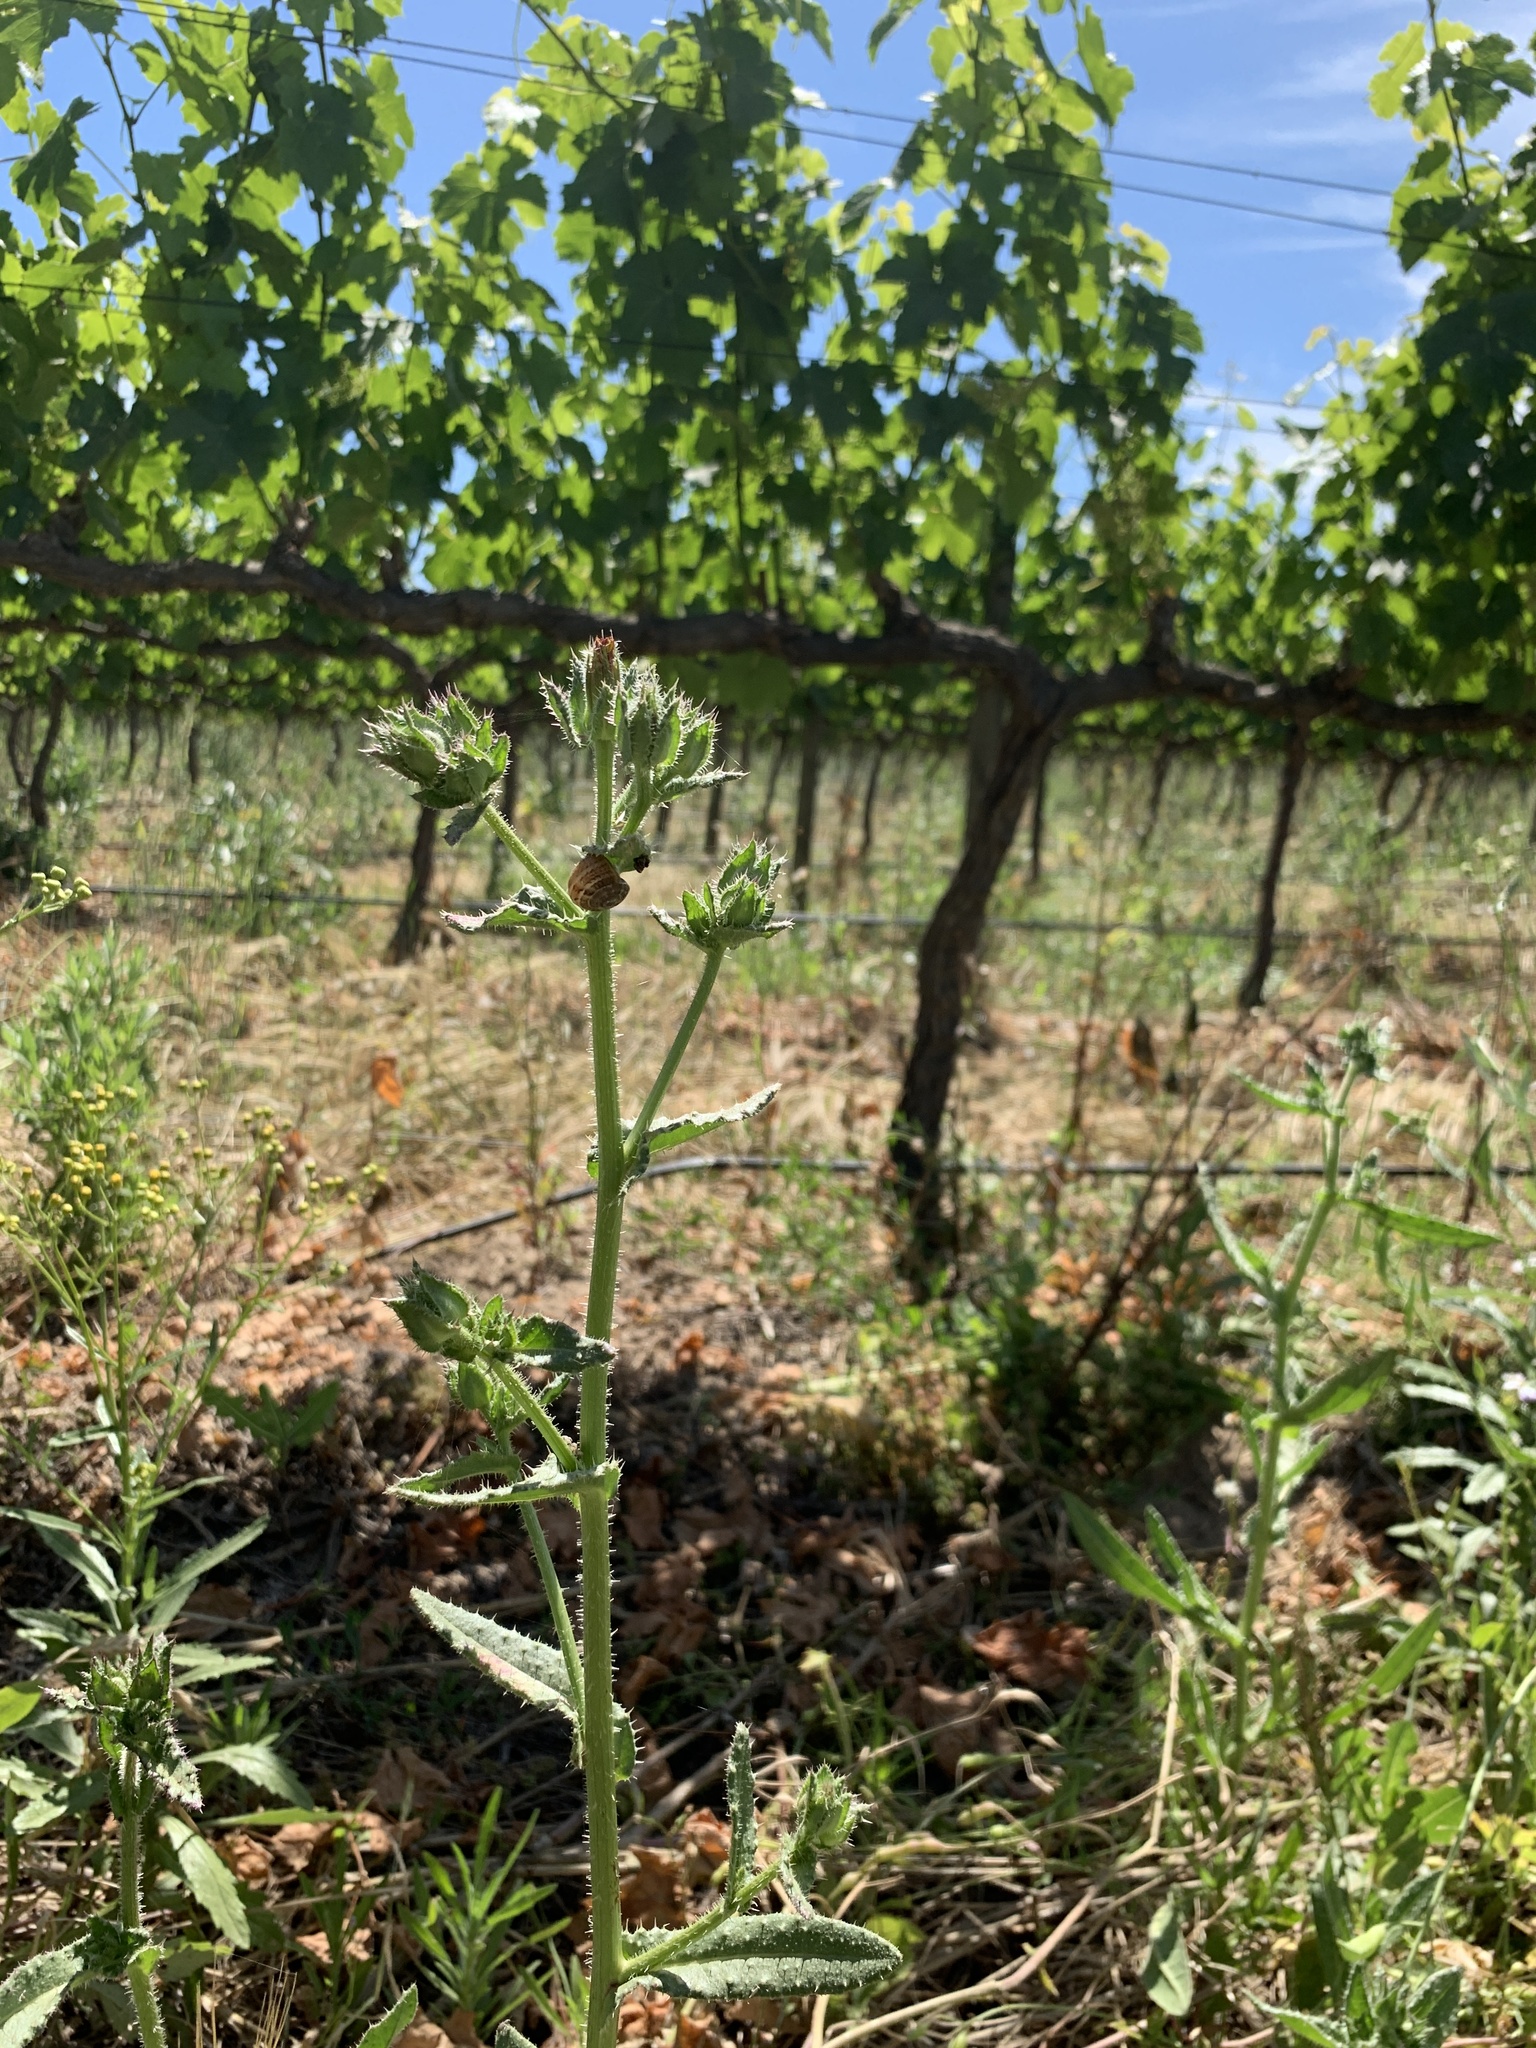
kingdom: Plantae
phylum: Tracheophyta
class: Magnoliopsida
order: Asterales
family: Asteraceae
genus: Helminthotheca
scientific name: Helminthotheca echioides
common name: Ox-tongue
